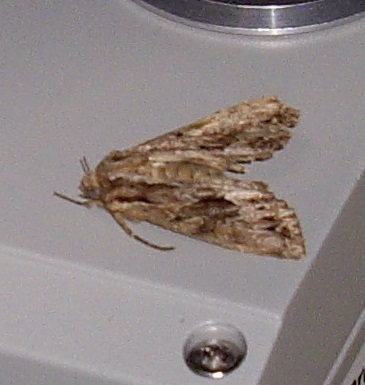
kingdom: Animalia
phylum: Arthropoda
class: Insecta
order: Lepidoptera
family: Noctuidae
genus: Apamea
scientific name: Apamea monoglypha
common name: Dark arches
